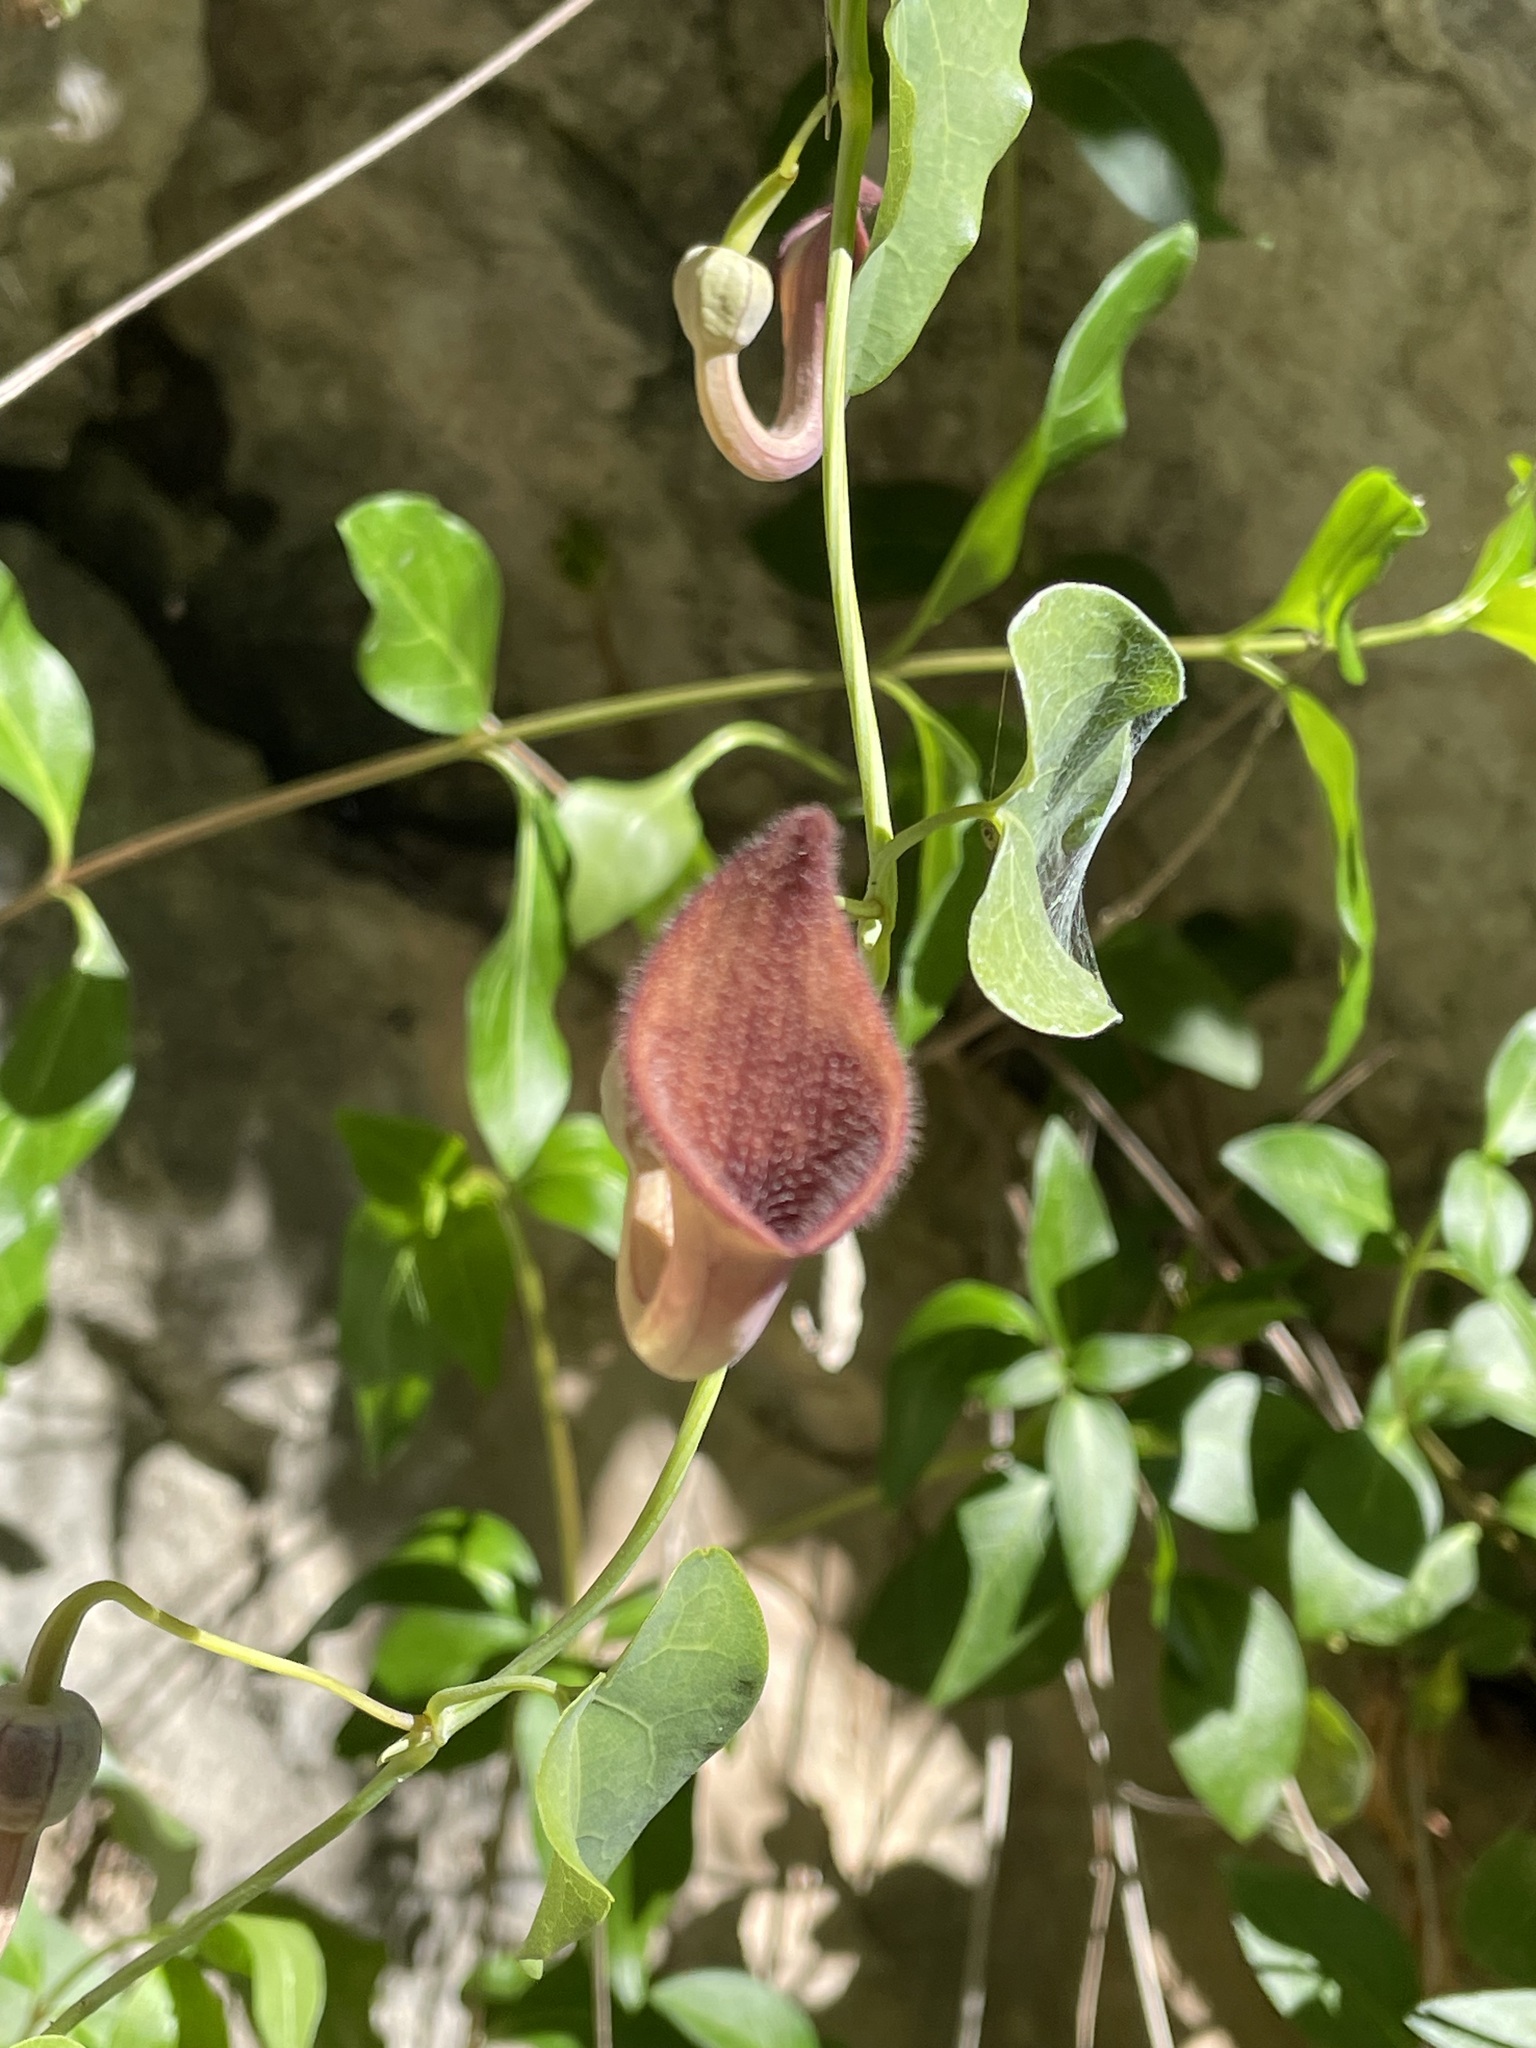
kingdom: Plantae
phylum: Tracheophyta
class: Magnoliopsida
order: Piperales
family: Aristolochiaceae
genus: Aristolochia
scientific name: Aristolochia baetica
